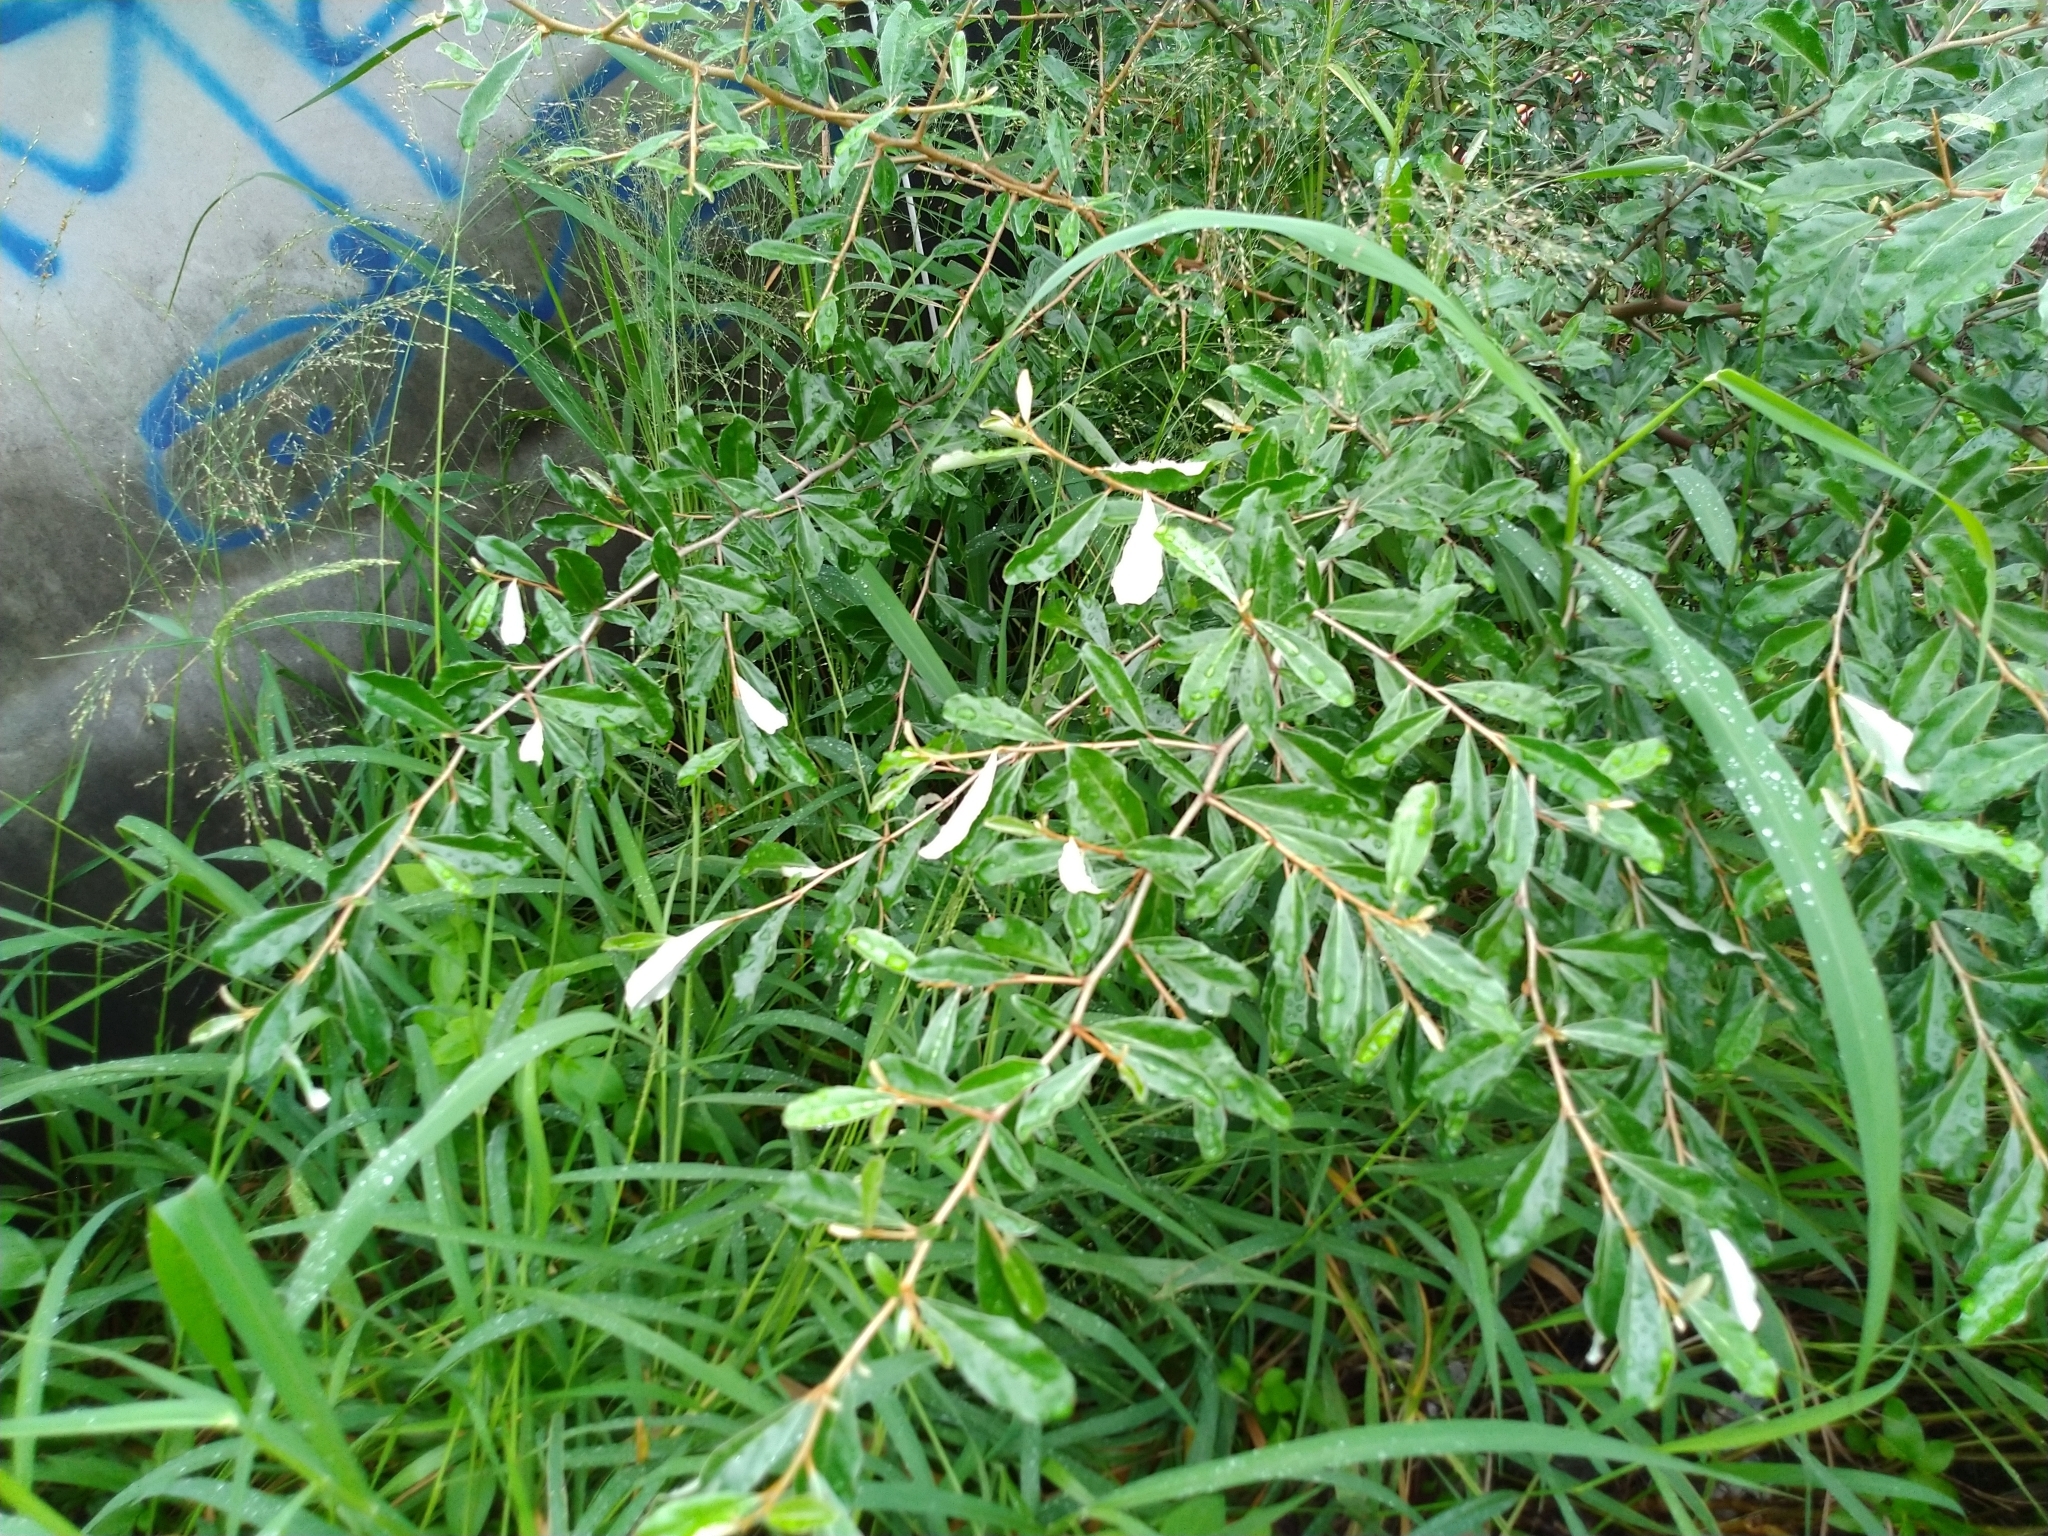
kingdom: Plantae
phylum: Tracheophyta
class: Magnoliopsida
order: Rosales
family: Elaeagnaceae
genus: Elaeagnus
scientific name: Elaeagnus oldhamii
